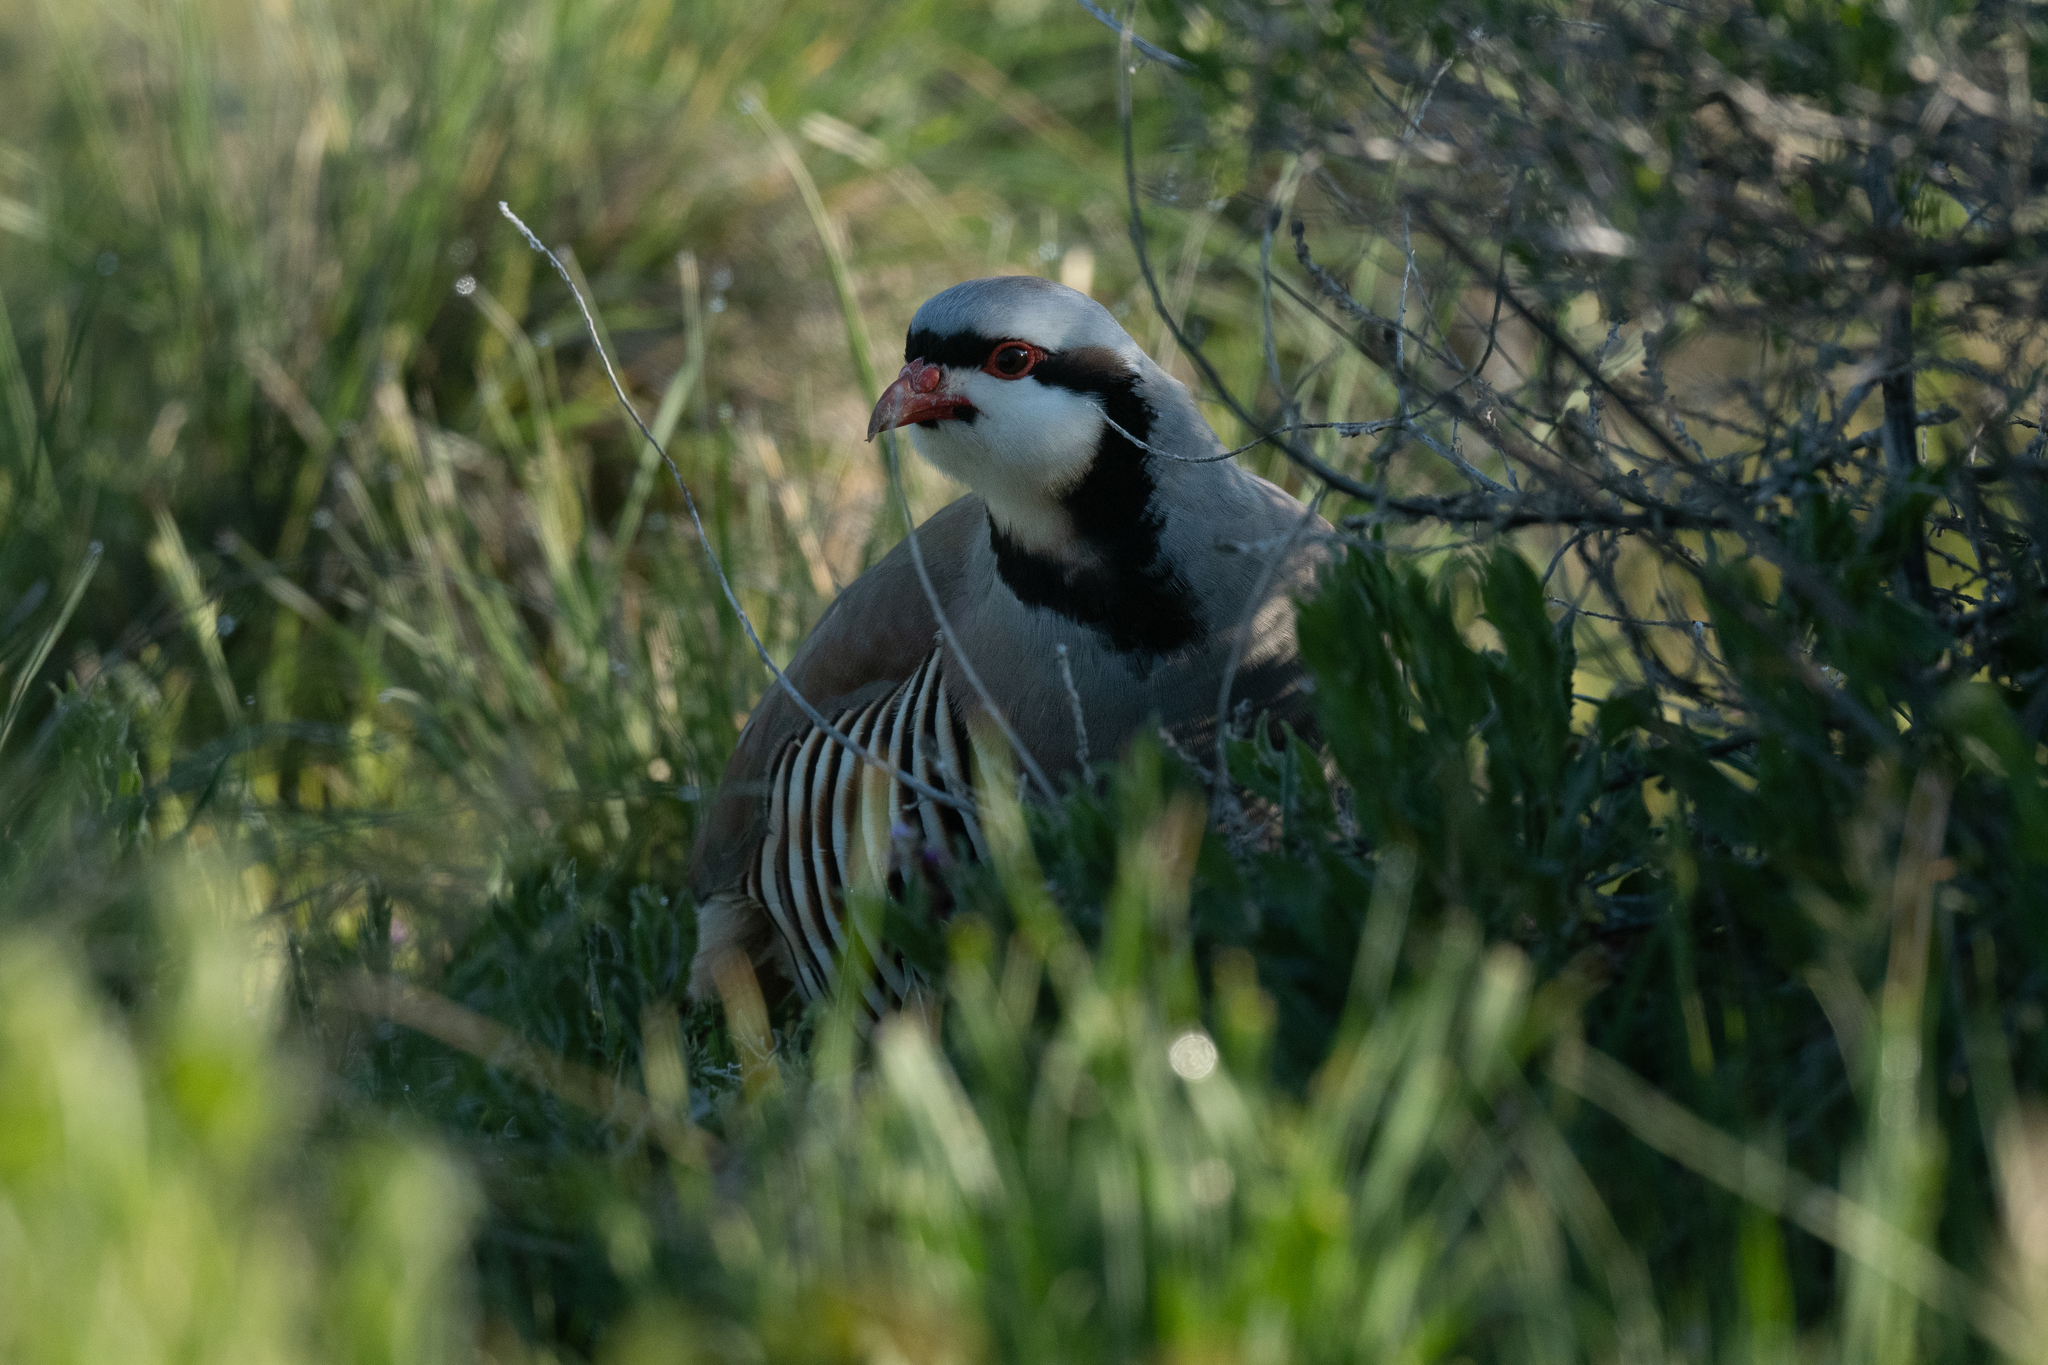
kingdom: Animalia
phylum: Chordata
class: Aves
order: Galliformes
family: Phasianidae
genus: Alectoris
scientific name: Alectoris chukar
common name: Chukar
